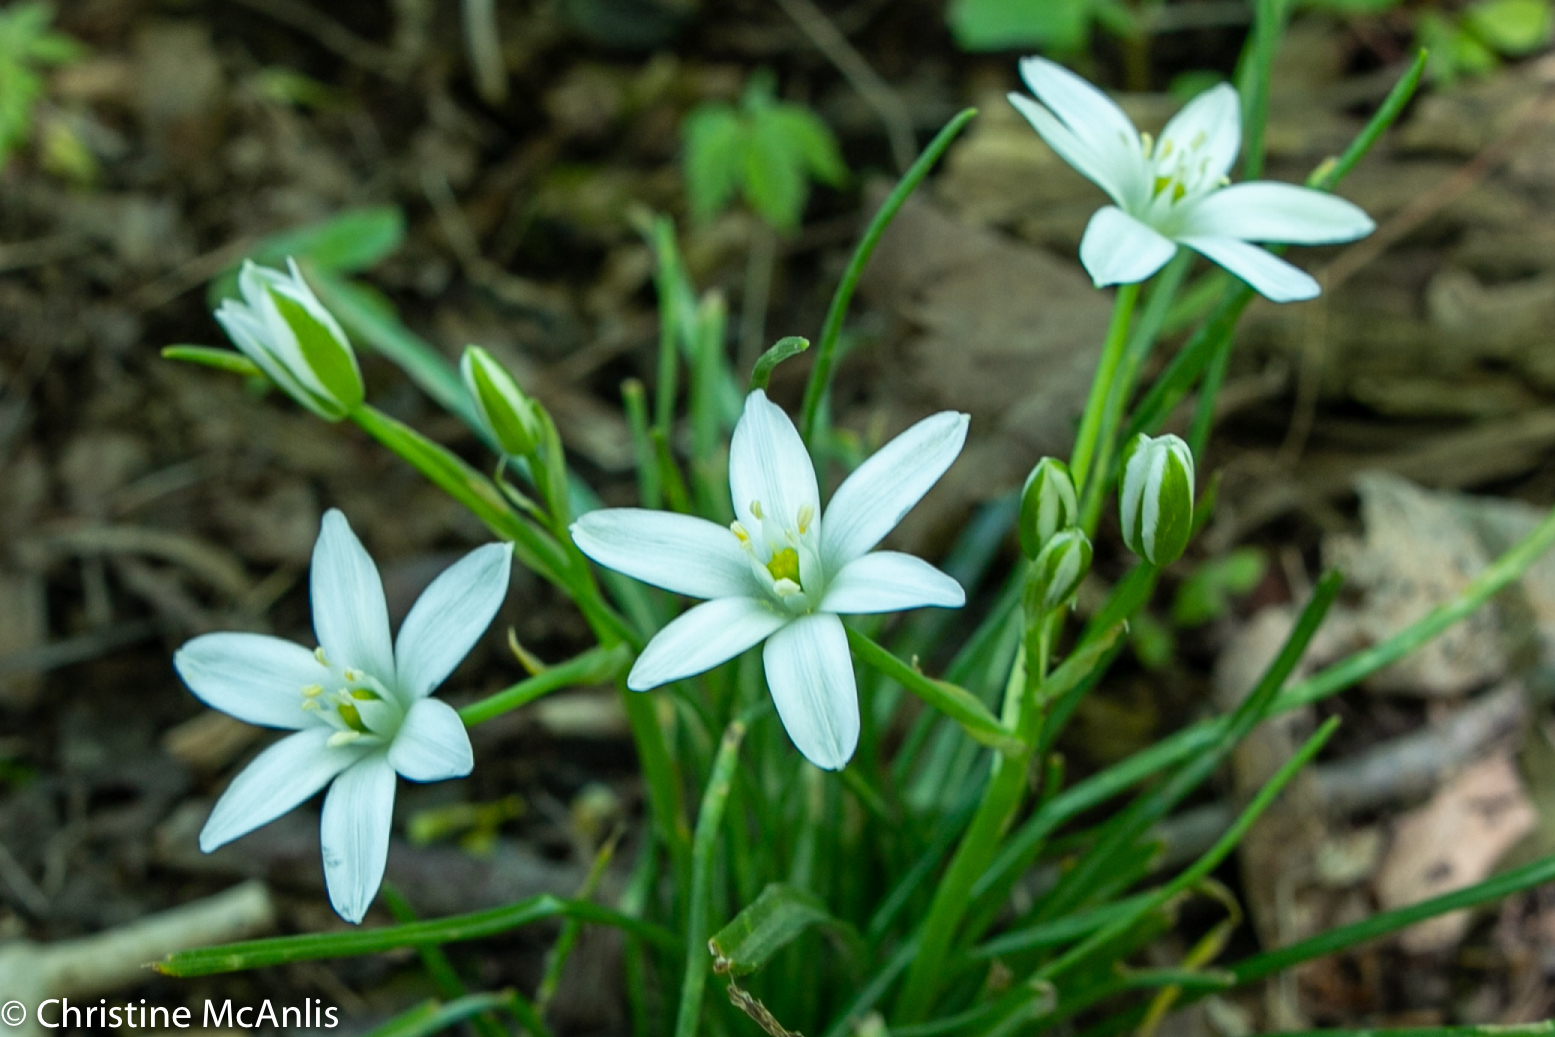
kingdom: Plantae
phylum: Tracheophyta
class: Liliopsida
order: Asparagales
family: Asparagaceae
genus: Ornithogalum
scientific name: Ornithogalum umbellatum
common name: Garden star-of-bethlehem
